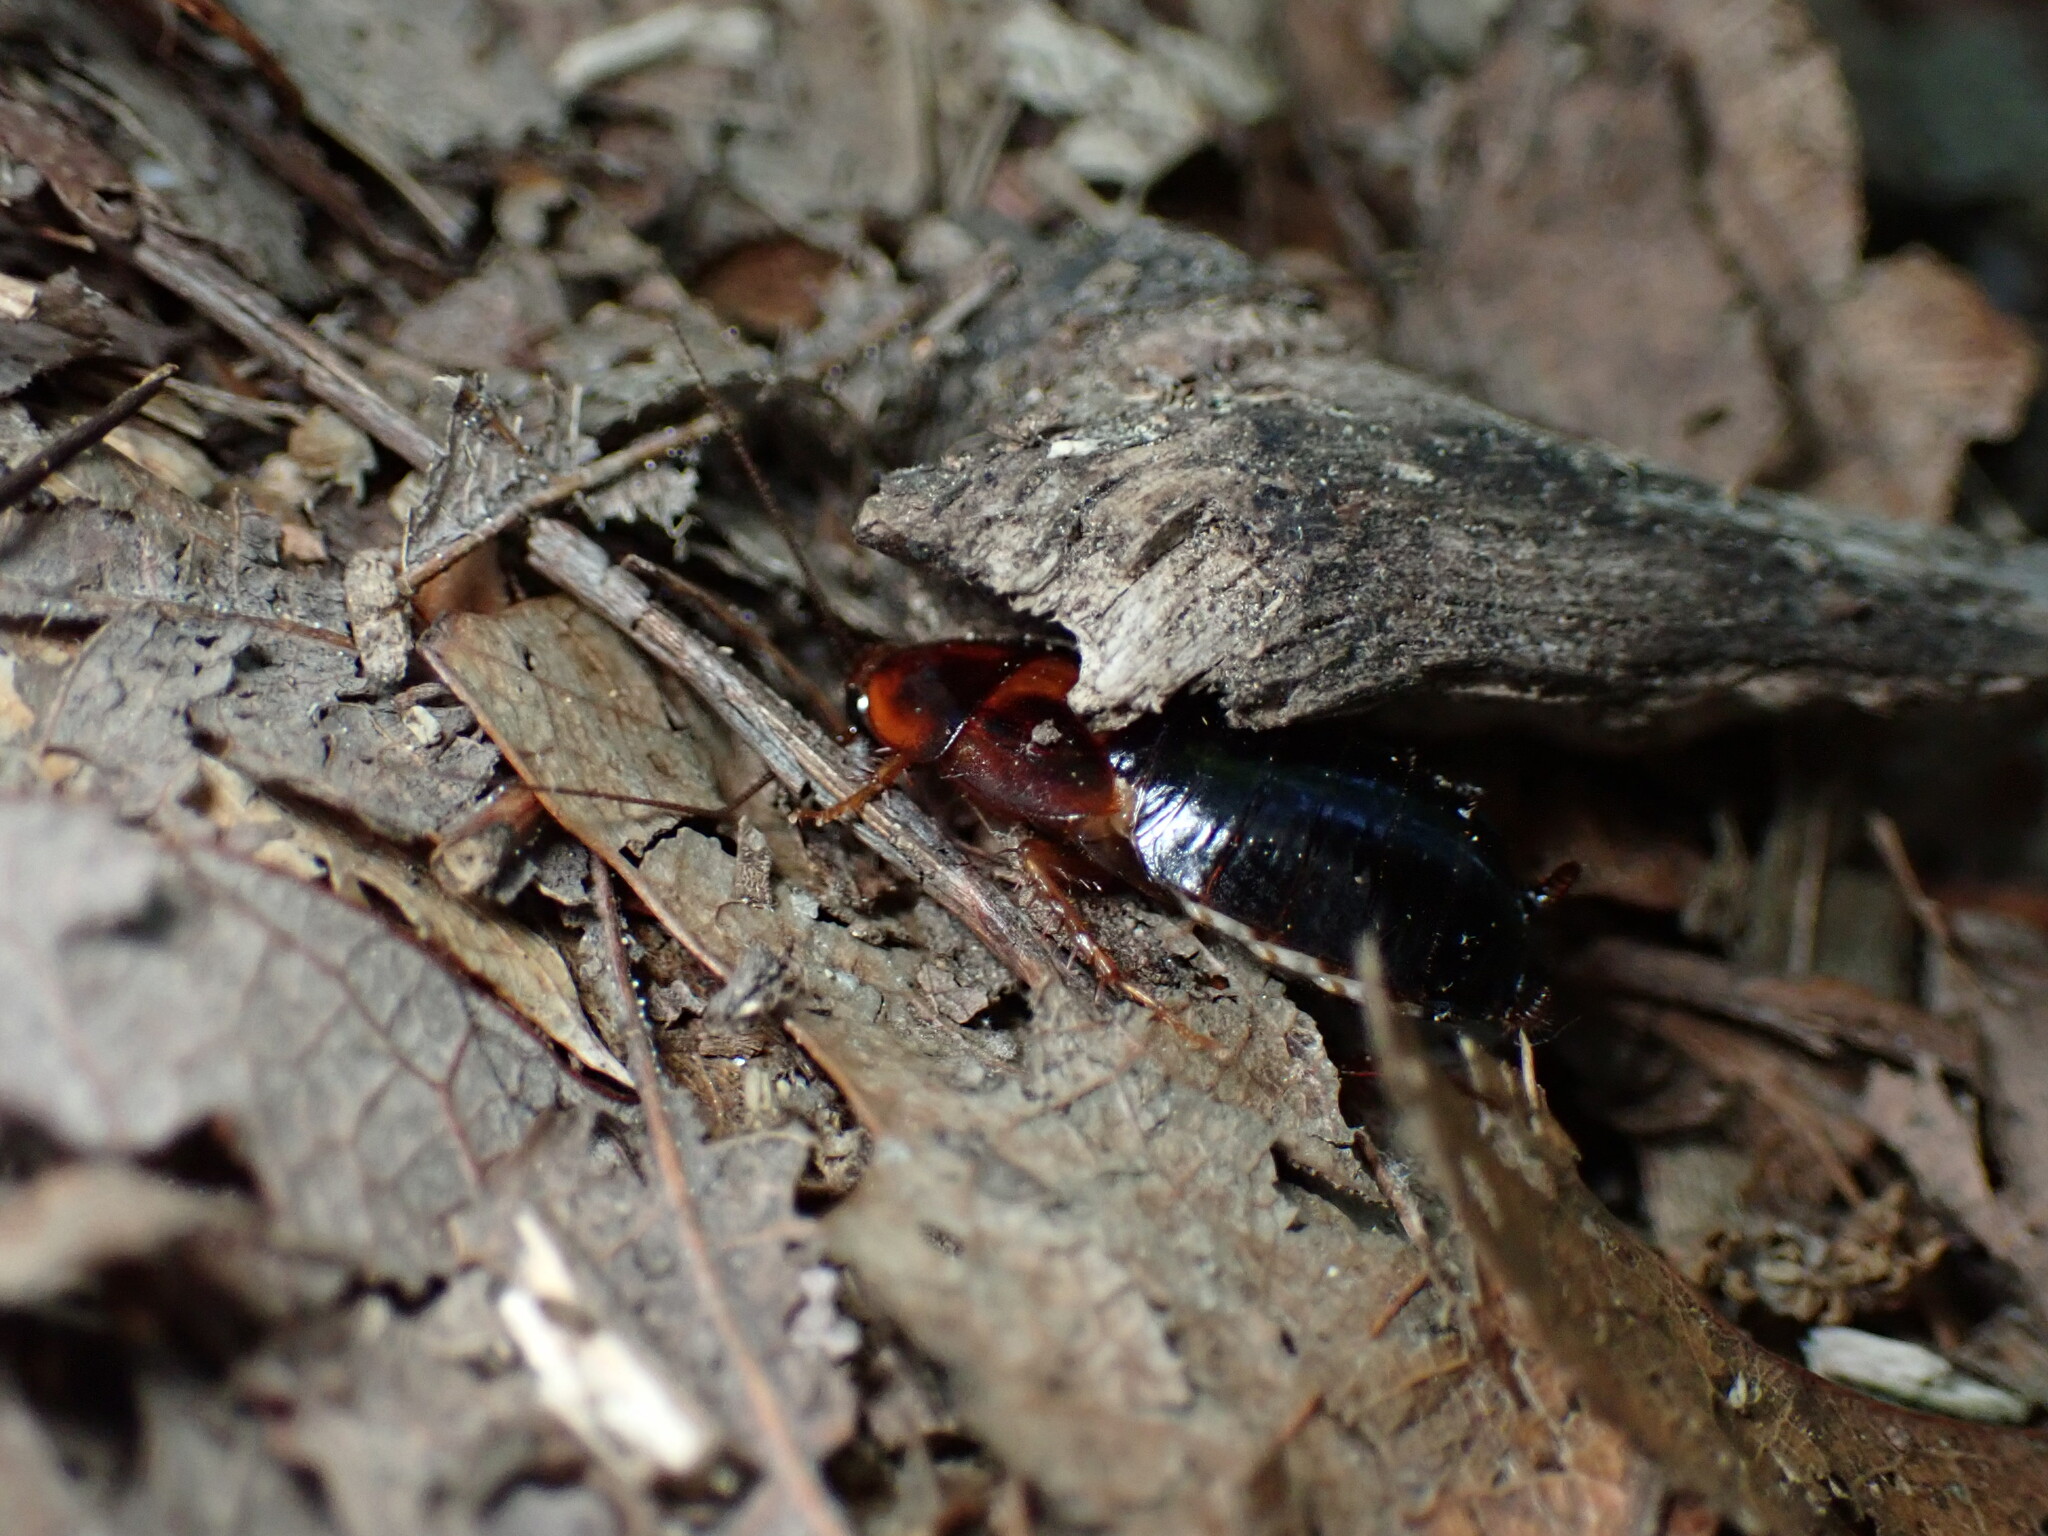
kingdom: Animalia
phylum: Arthropoda
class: Insecta
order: Blattodea
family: Ectobiidae
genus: Parcoblatta
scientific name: Parcoblatta uhleriana
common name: Uhler's wood cockroach
